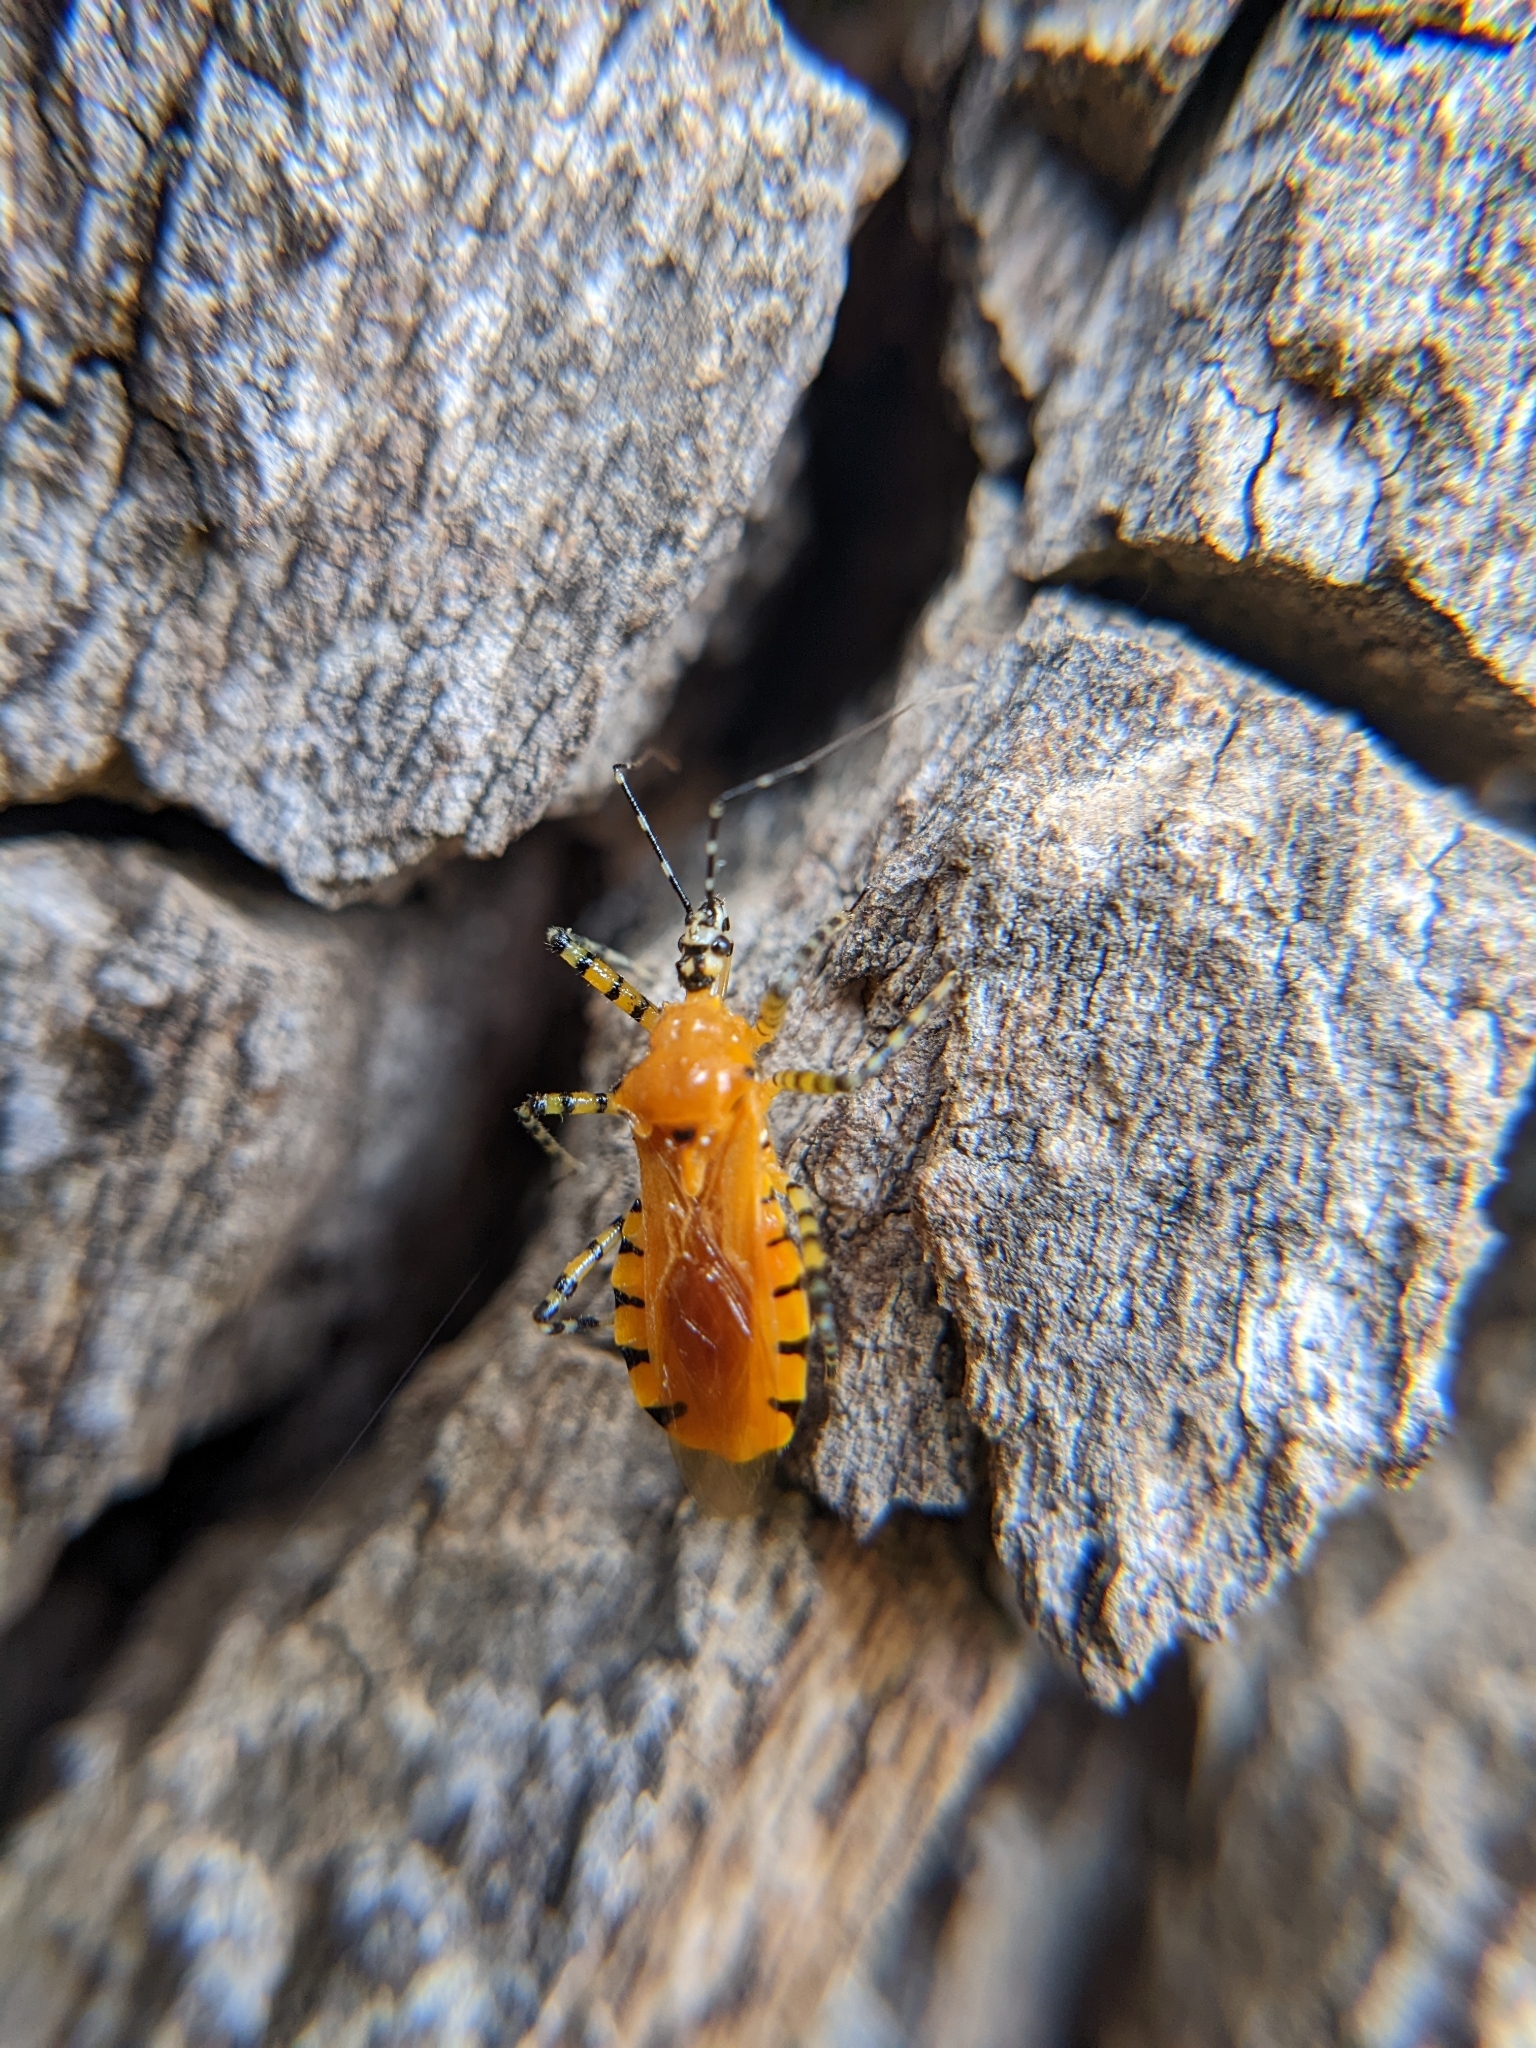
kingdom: Animalia
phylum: Arthropoda
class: Insecta
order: Hemiptera
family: Reduviidae
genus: Pselliopus
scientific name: Pselliopus barberi
